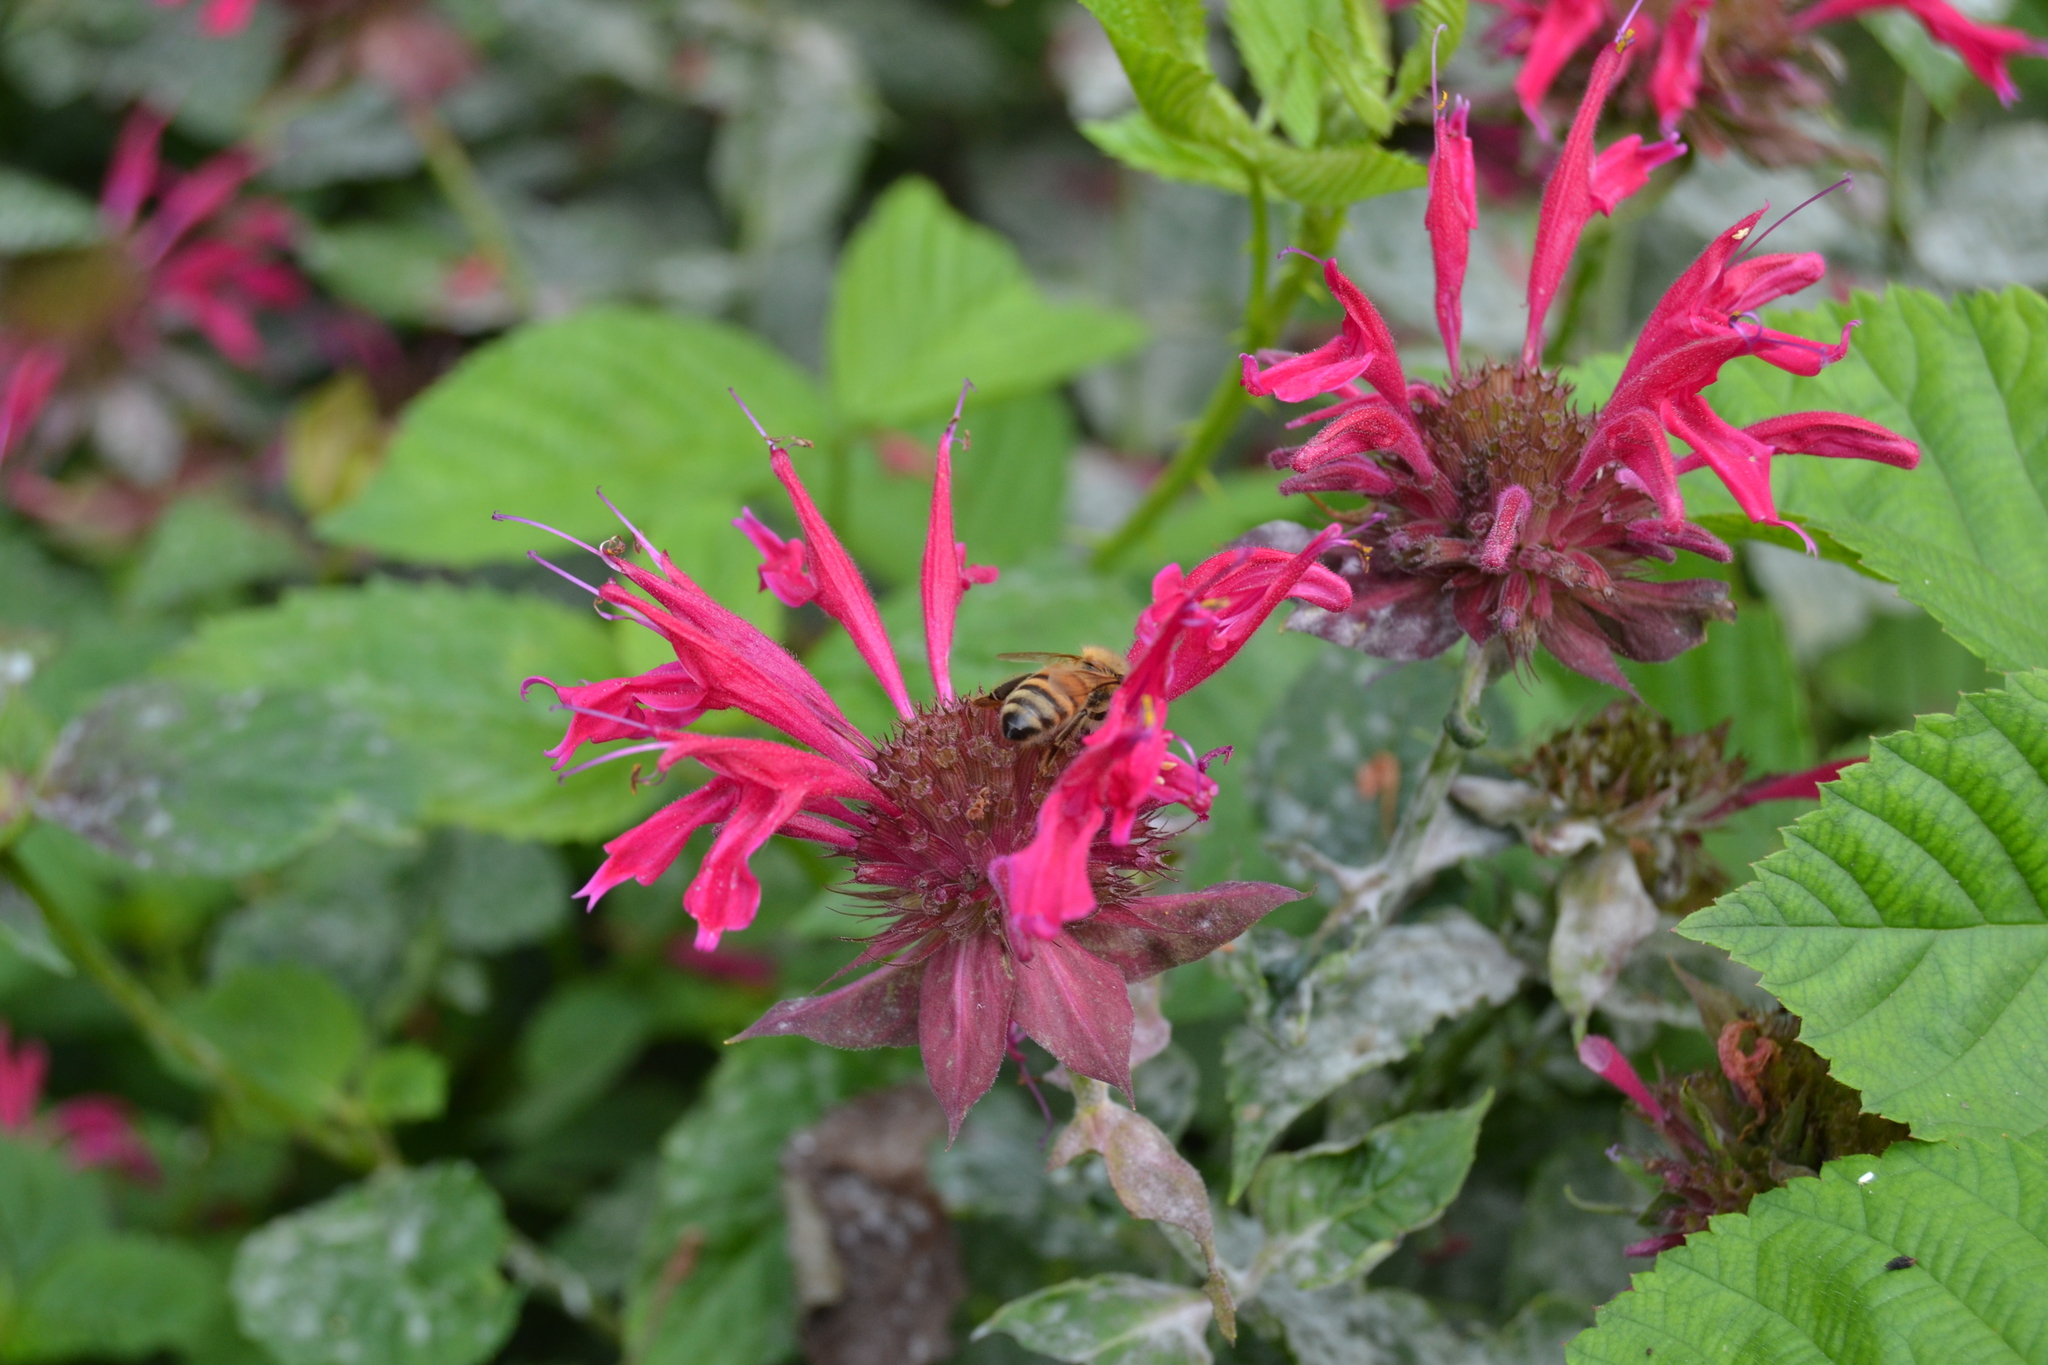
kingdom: Animalia
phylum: Arthropoda
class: Insecta
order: Hymenoptera
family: Apidae
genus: Apis
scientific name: Apis mellifera
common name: Honey bee
